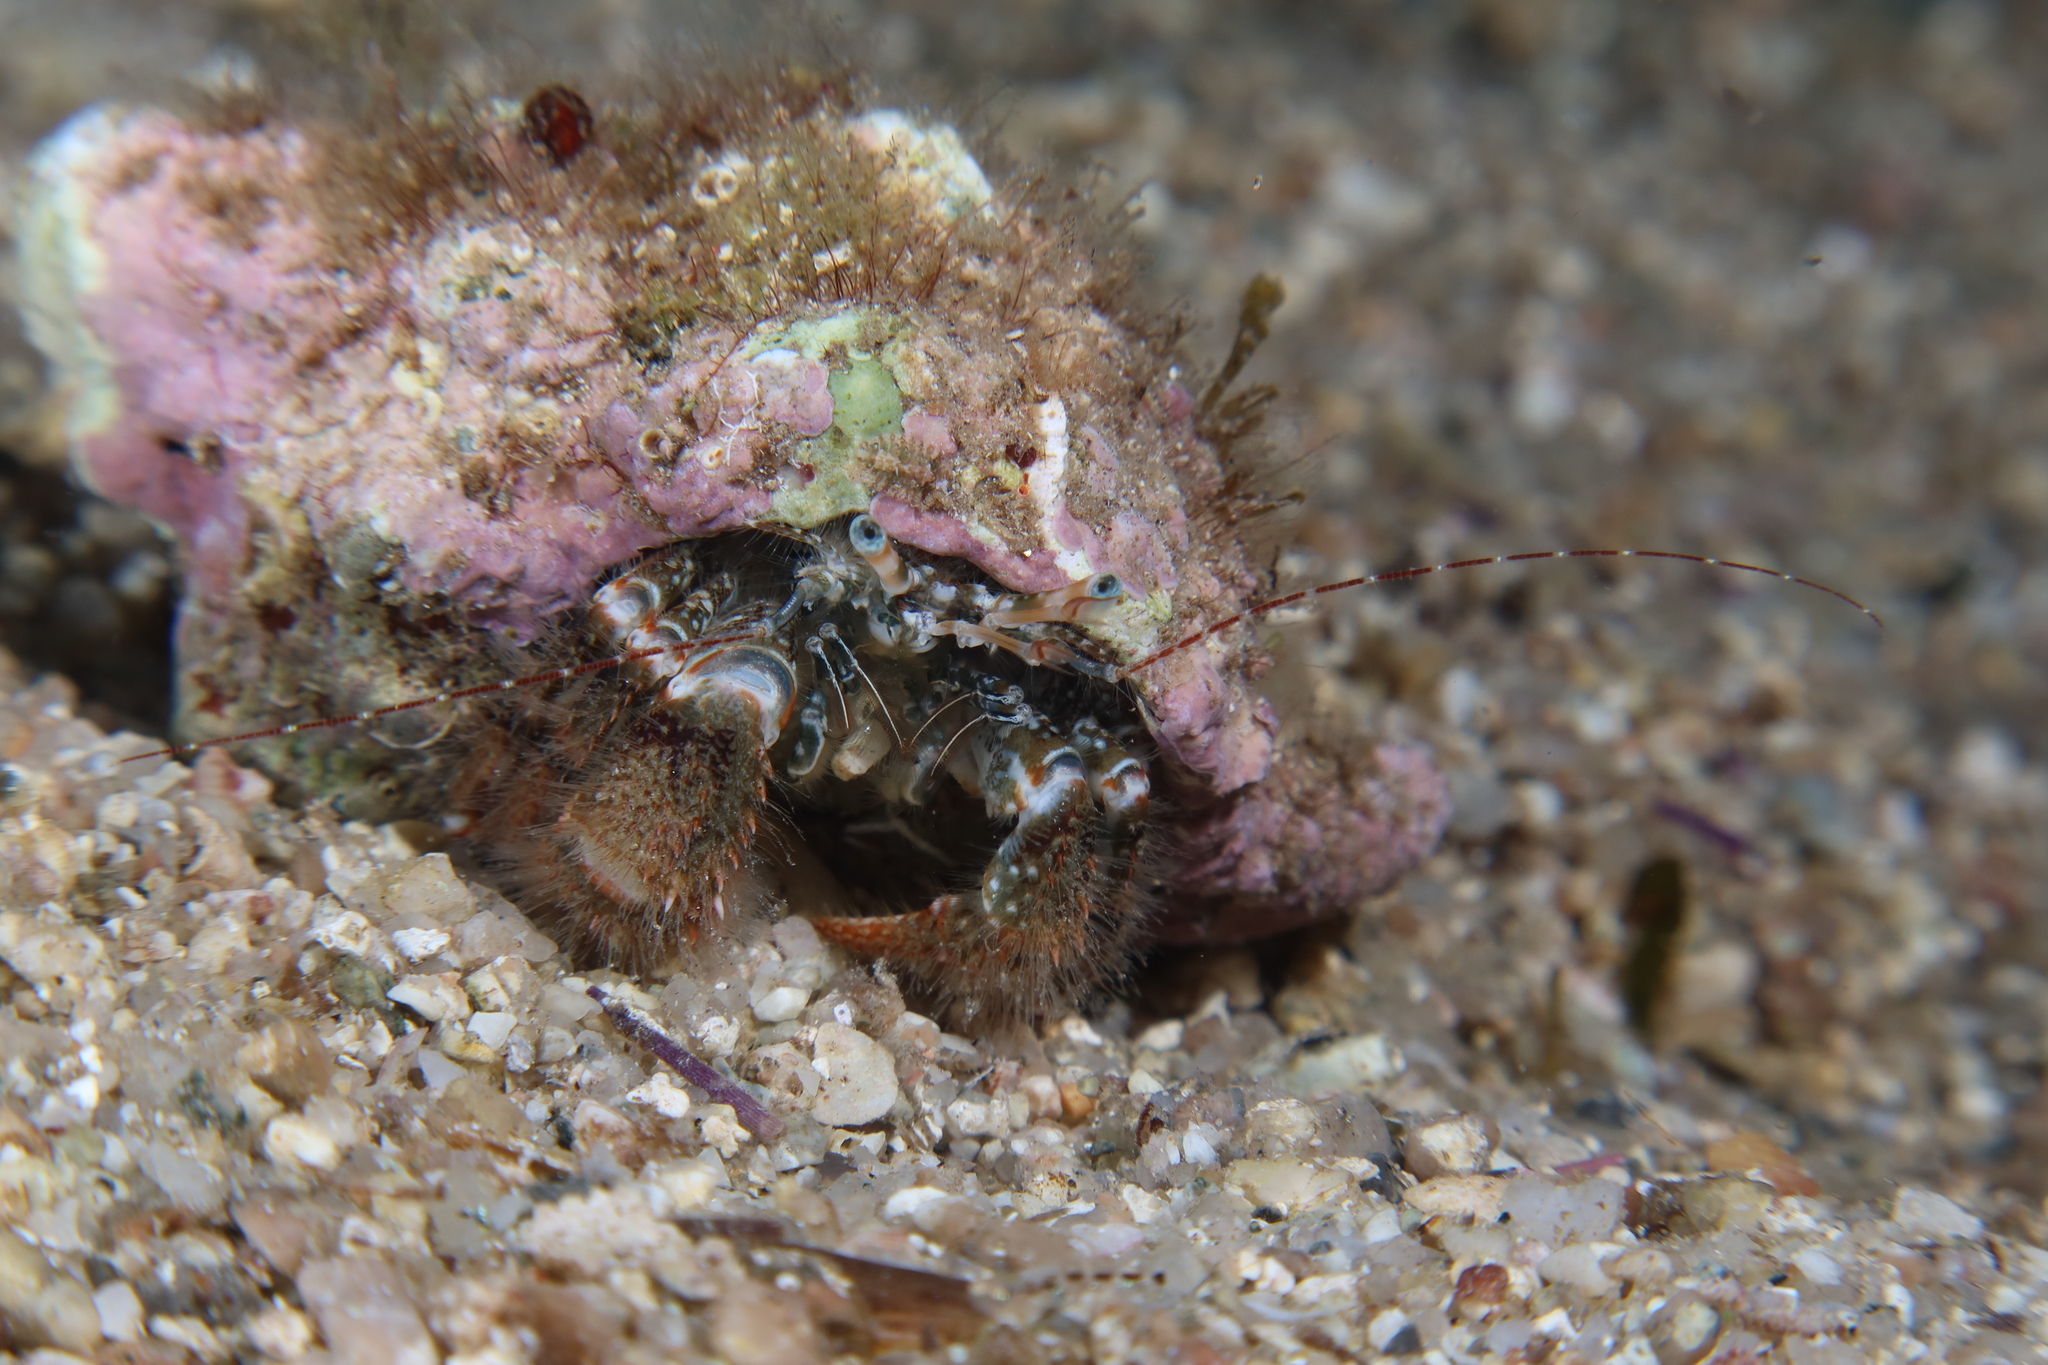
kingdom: Animalia
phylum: Arthropoda
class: Malacostraca
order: Decapoda
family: Paguridae
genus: Pagurus
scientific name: Pagurus cuanensis
